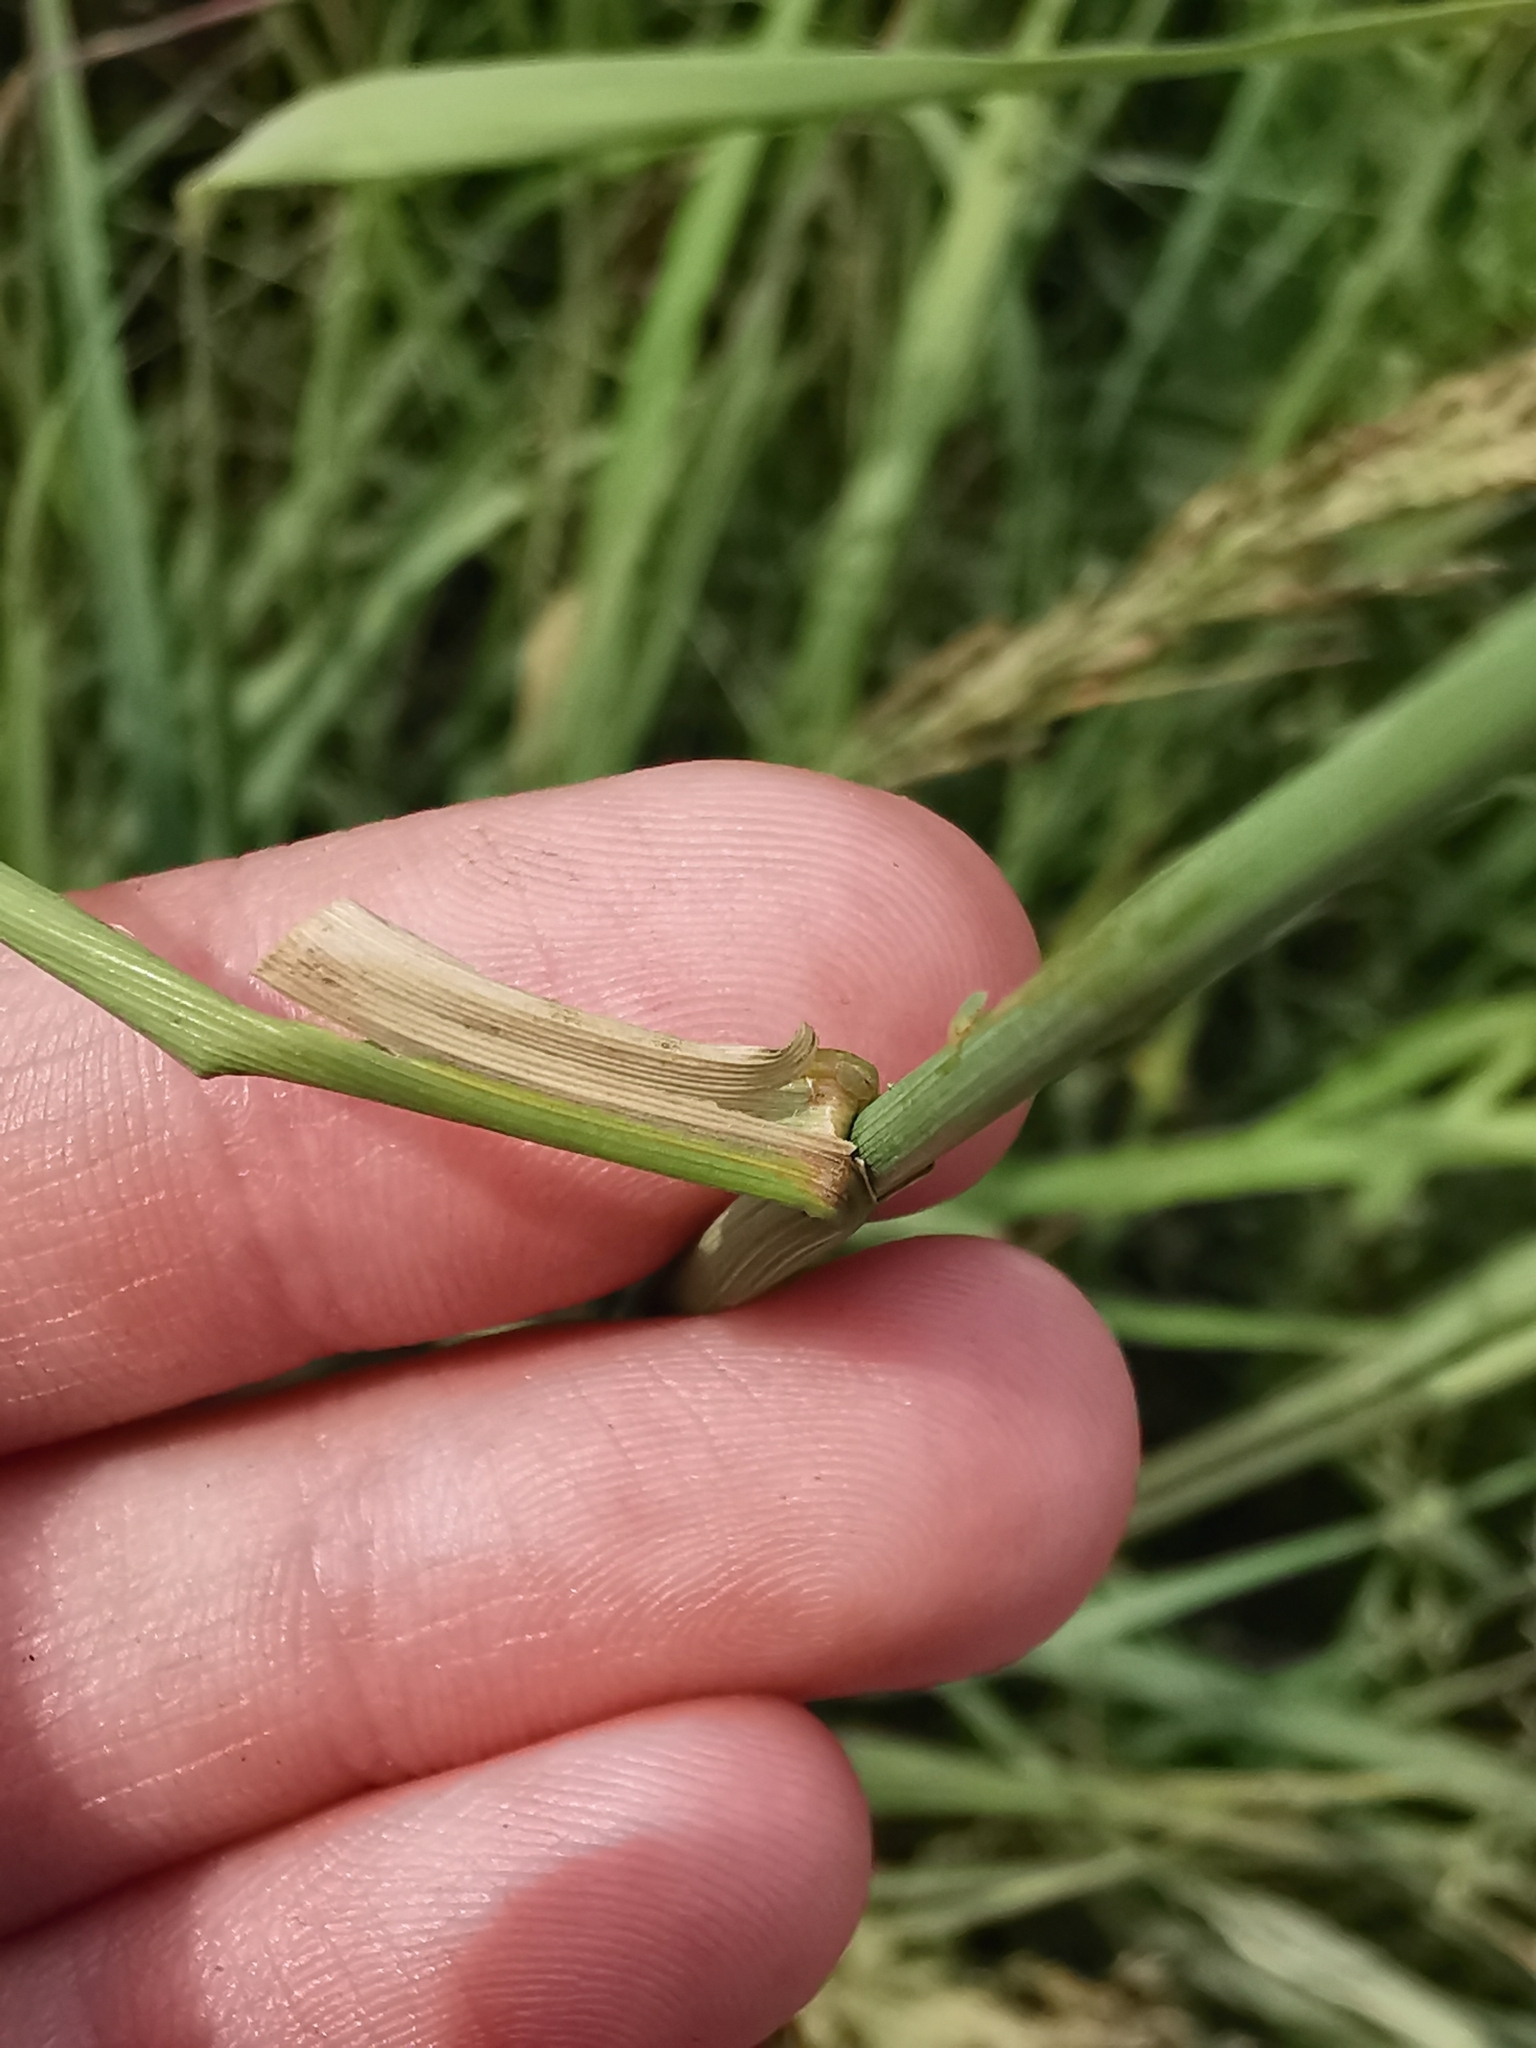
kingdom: Plantae
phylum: Tracheophyta
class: Liliopsida
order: Poales
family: Poaceae
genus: Calamagrostis
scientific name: Calamagrostis epigejos
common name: Wood small-reed
